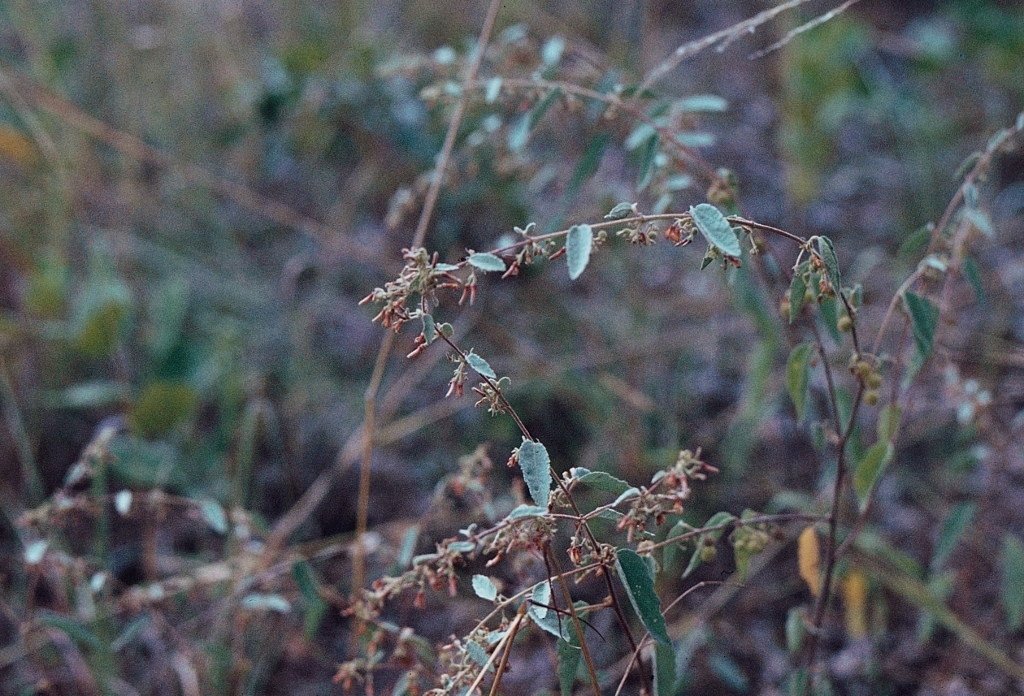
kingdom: Plantae
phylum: Tracheophyta
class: Magnoliopsida
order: Malvales
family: Malvaceae
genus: Triumfetta
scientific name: Triumfetta dekindtiana
